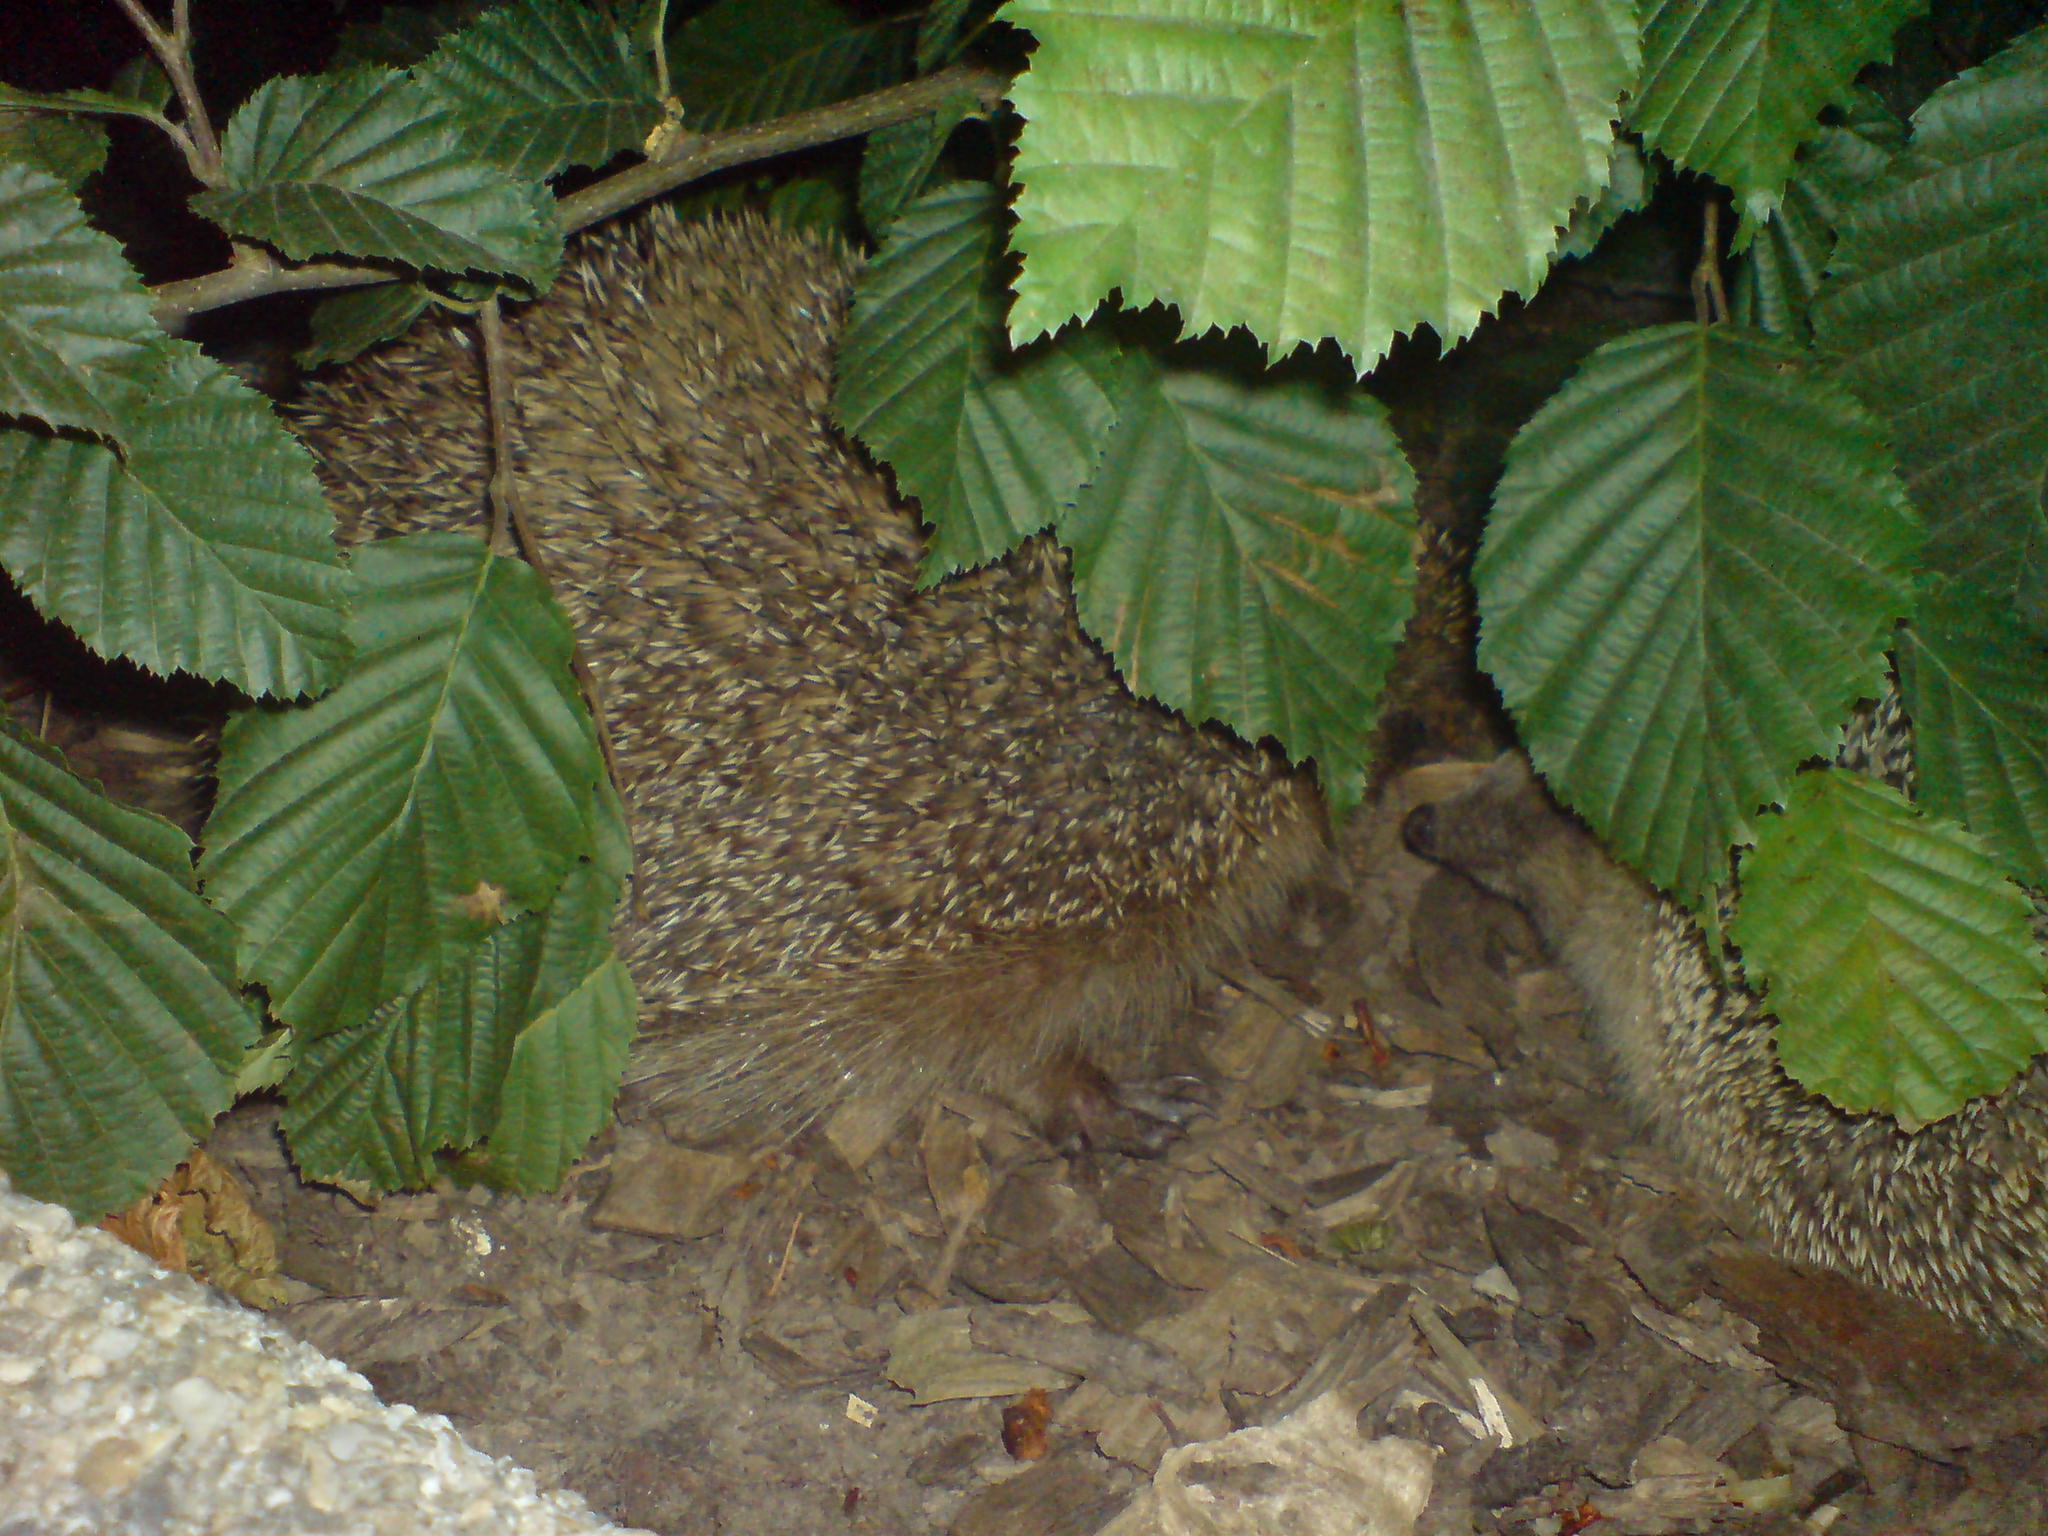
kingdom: Animalia
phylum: Chordata
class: Mammalia
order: Erinaceomorpha
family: Erinaceidae
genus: Erinaceus
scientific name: Erinaceus europaeus
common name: West european hedgehog
